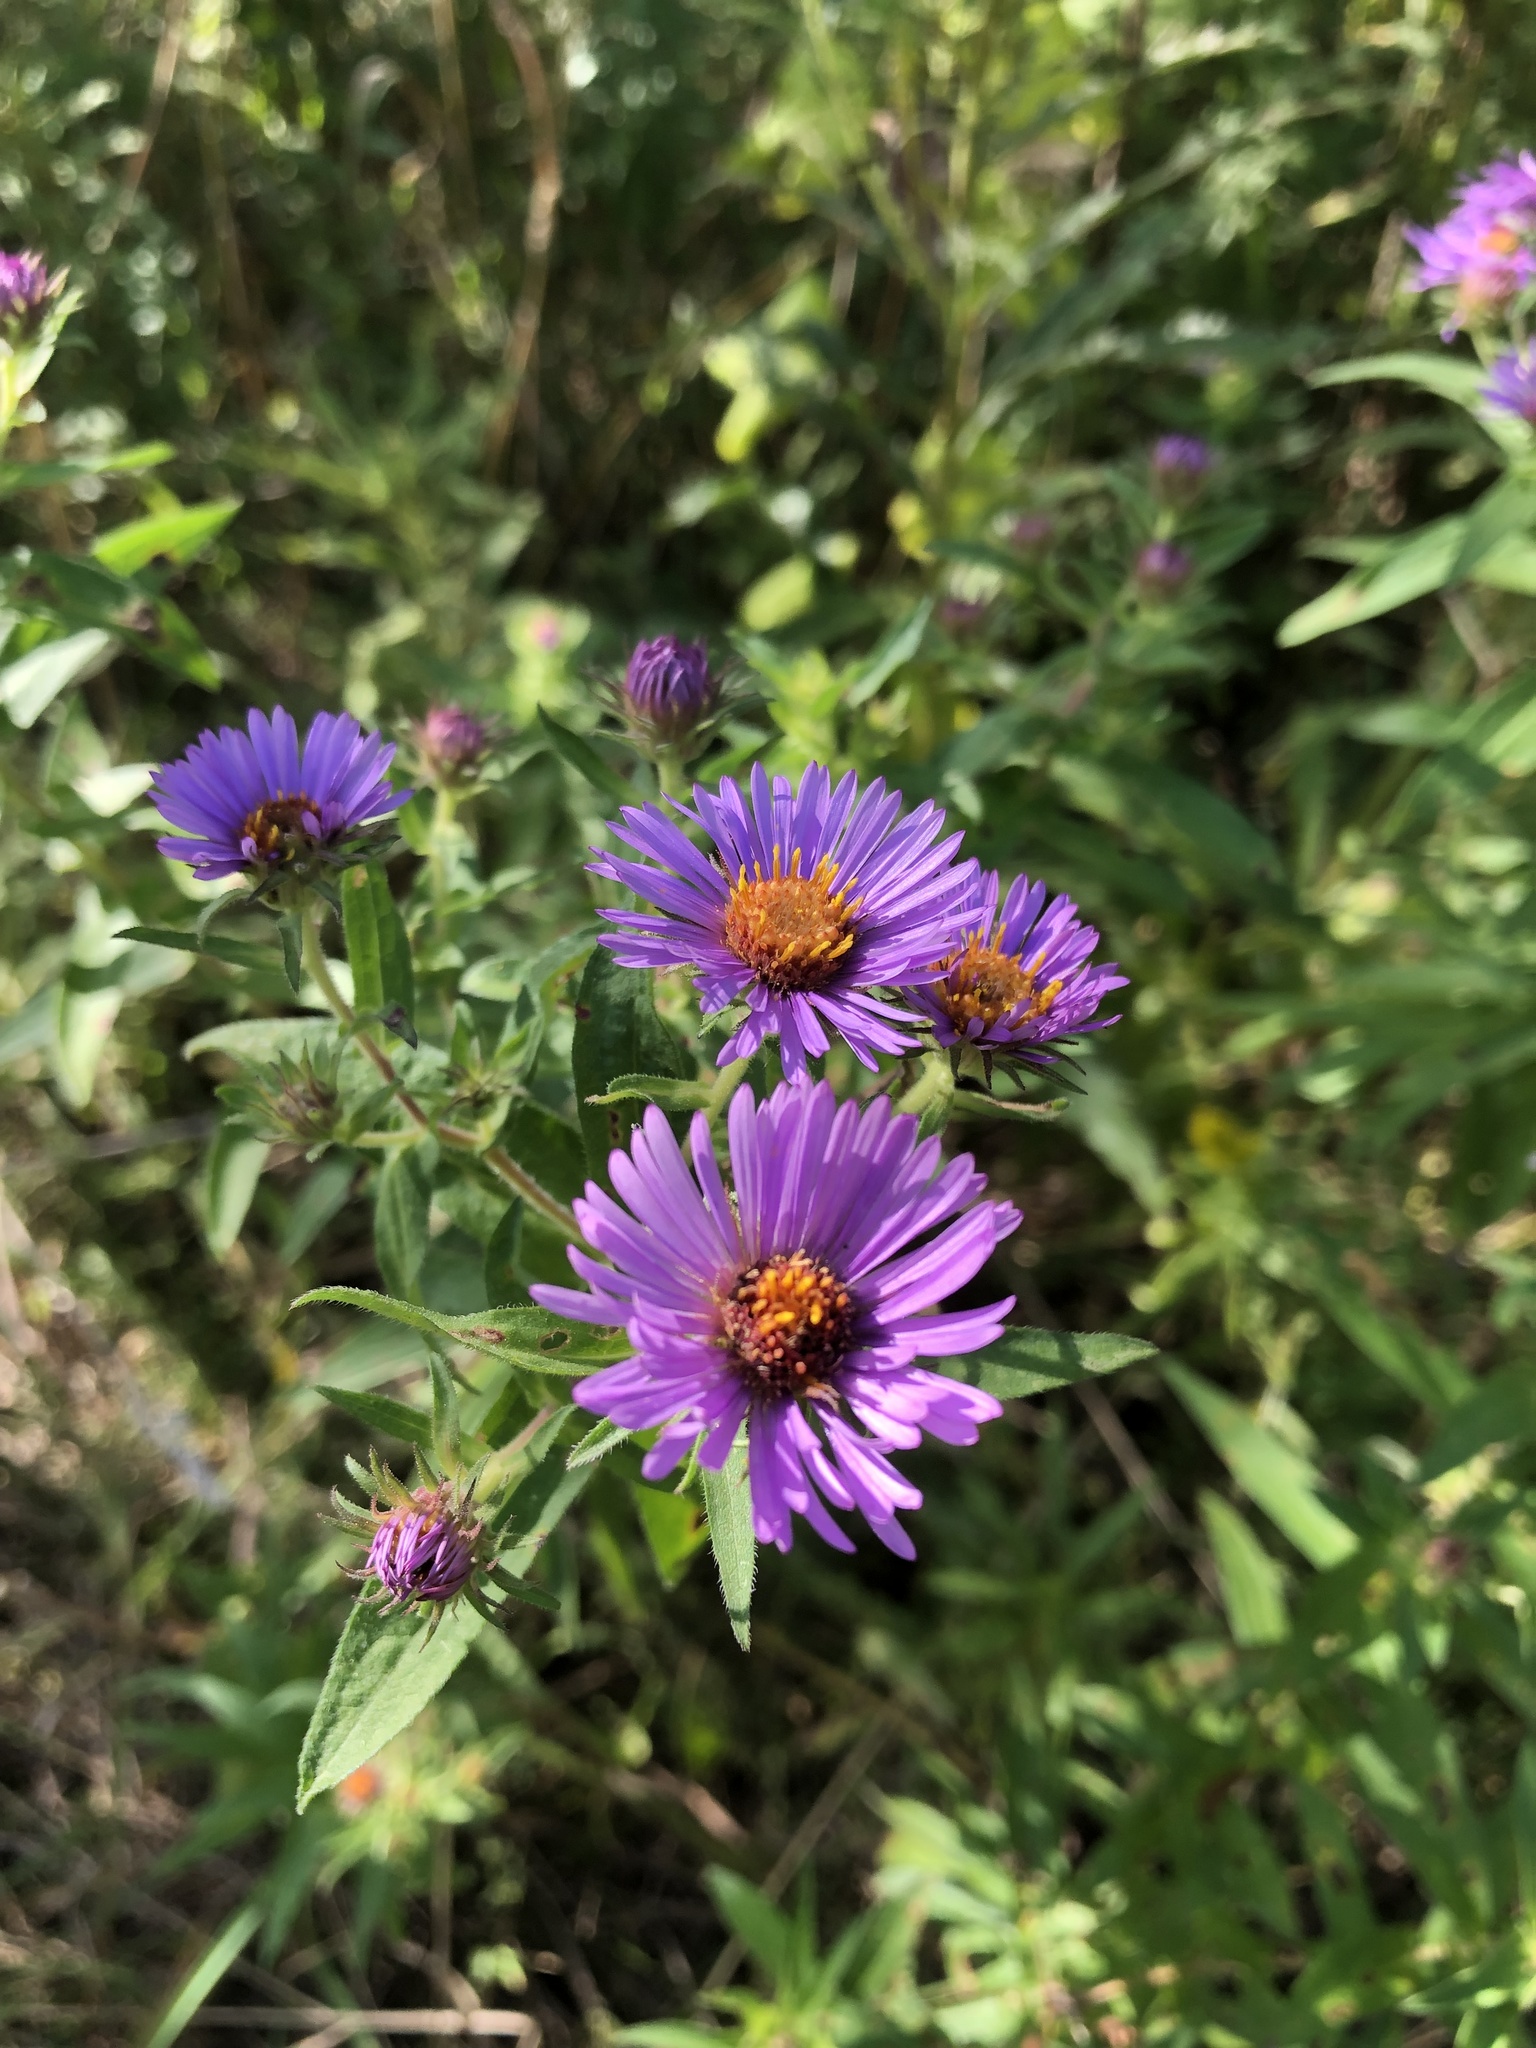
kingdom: Plantae
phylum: Tracheophyta
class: Magnoliopsida
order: Asterales
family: Asteraceae
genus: Symphyotrichum
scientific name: Symphyotrichum novae-angliae
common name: Michaelmas daisy
